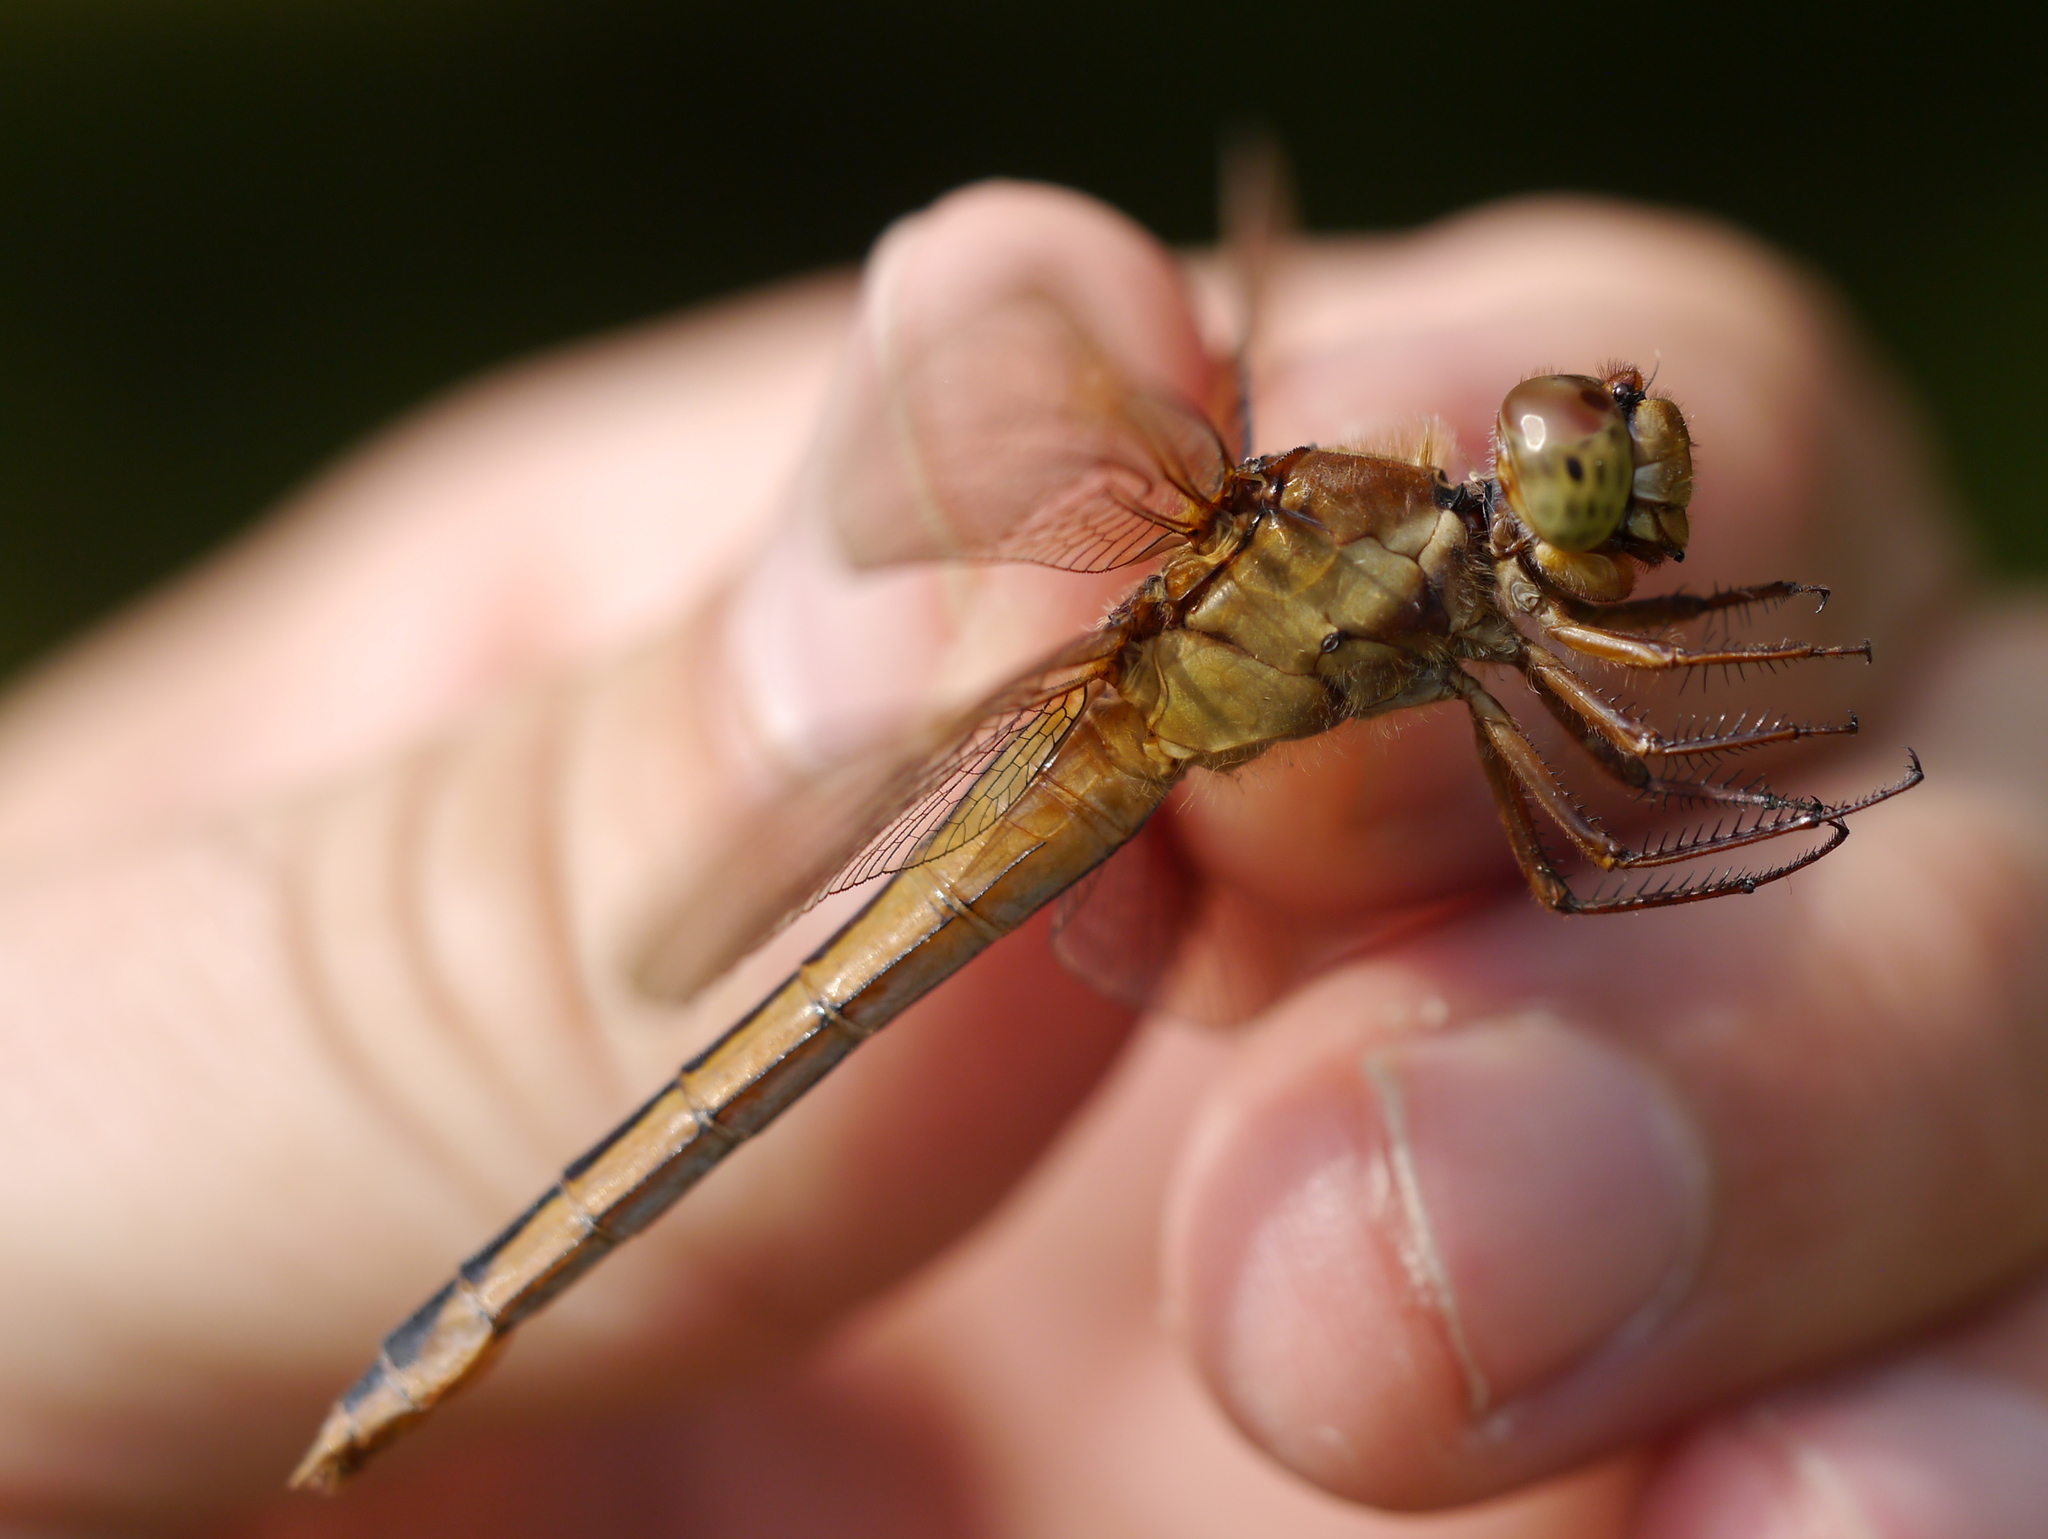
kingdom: Animalia
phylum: Arthropoda
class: Insecta
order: Odonata
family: Libellulidae
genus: Libellula
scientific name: Libellula needhami
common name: Needham's skimmer
